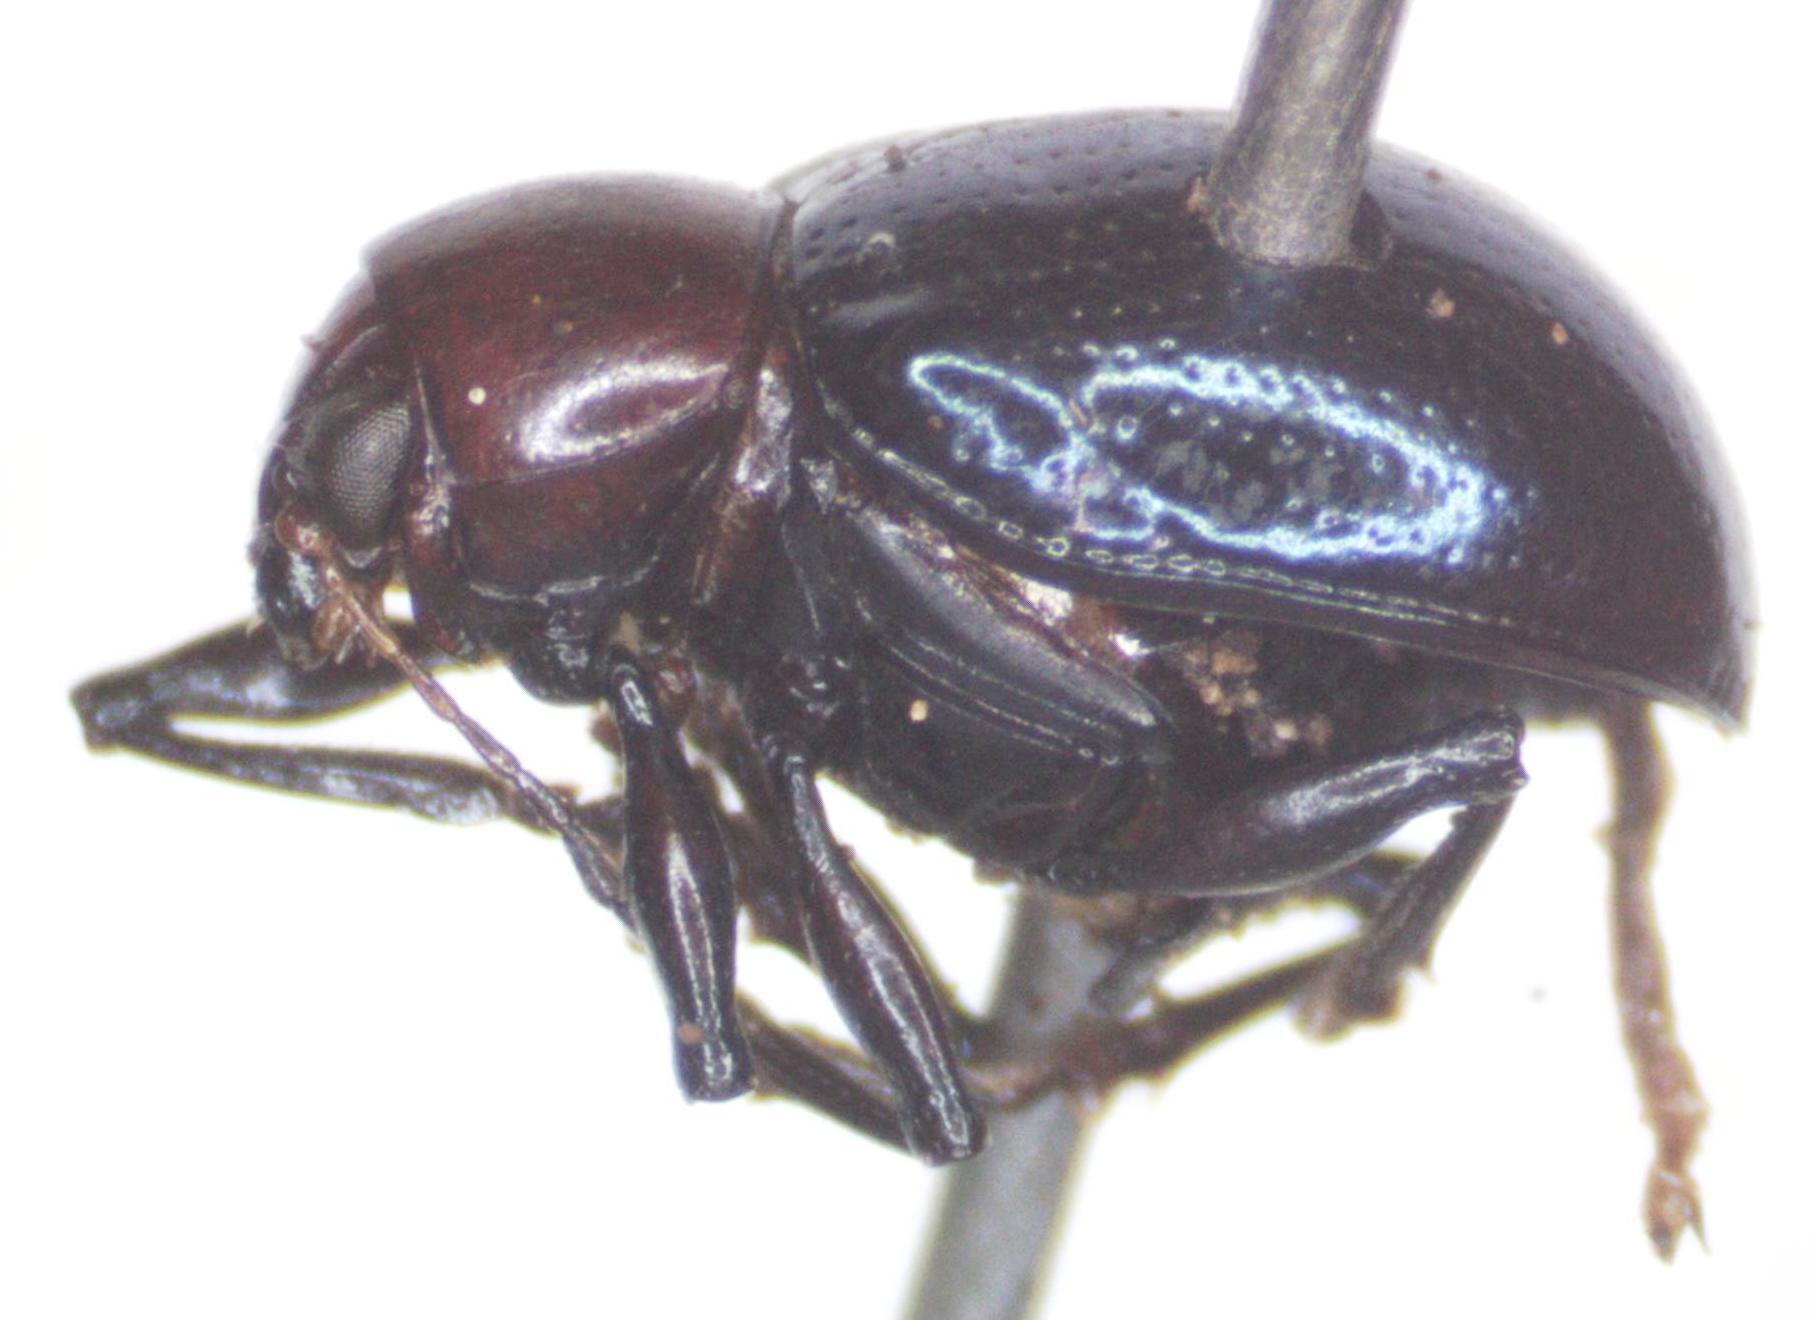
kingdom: Animalia
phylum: Arthropoda
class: Insecta
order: Coleoptera
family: Chrysomelidae
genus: Typophorus
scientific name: Typophorus
